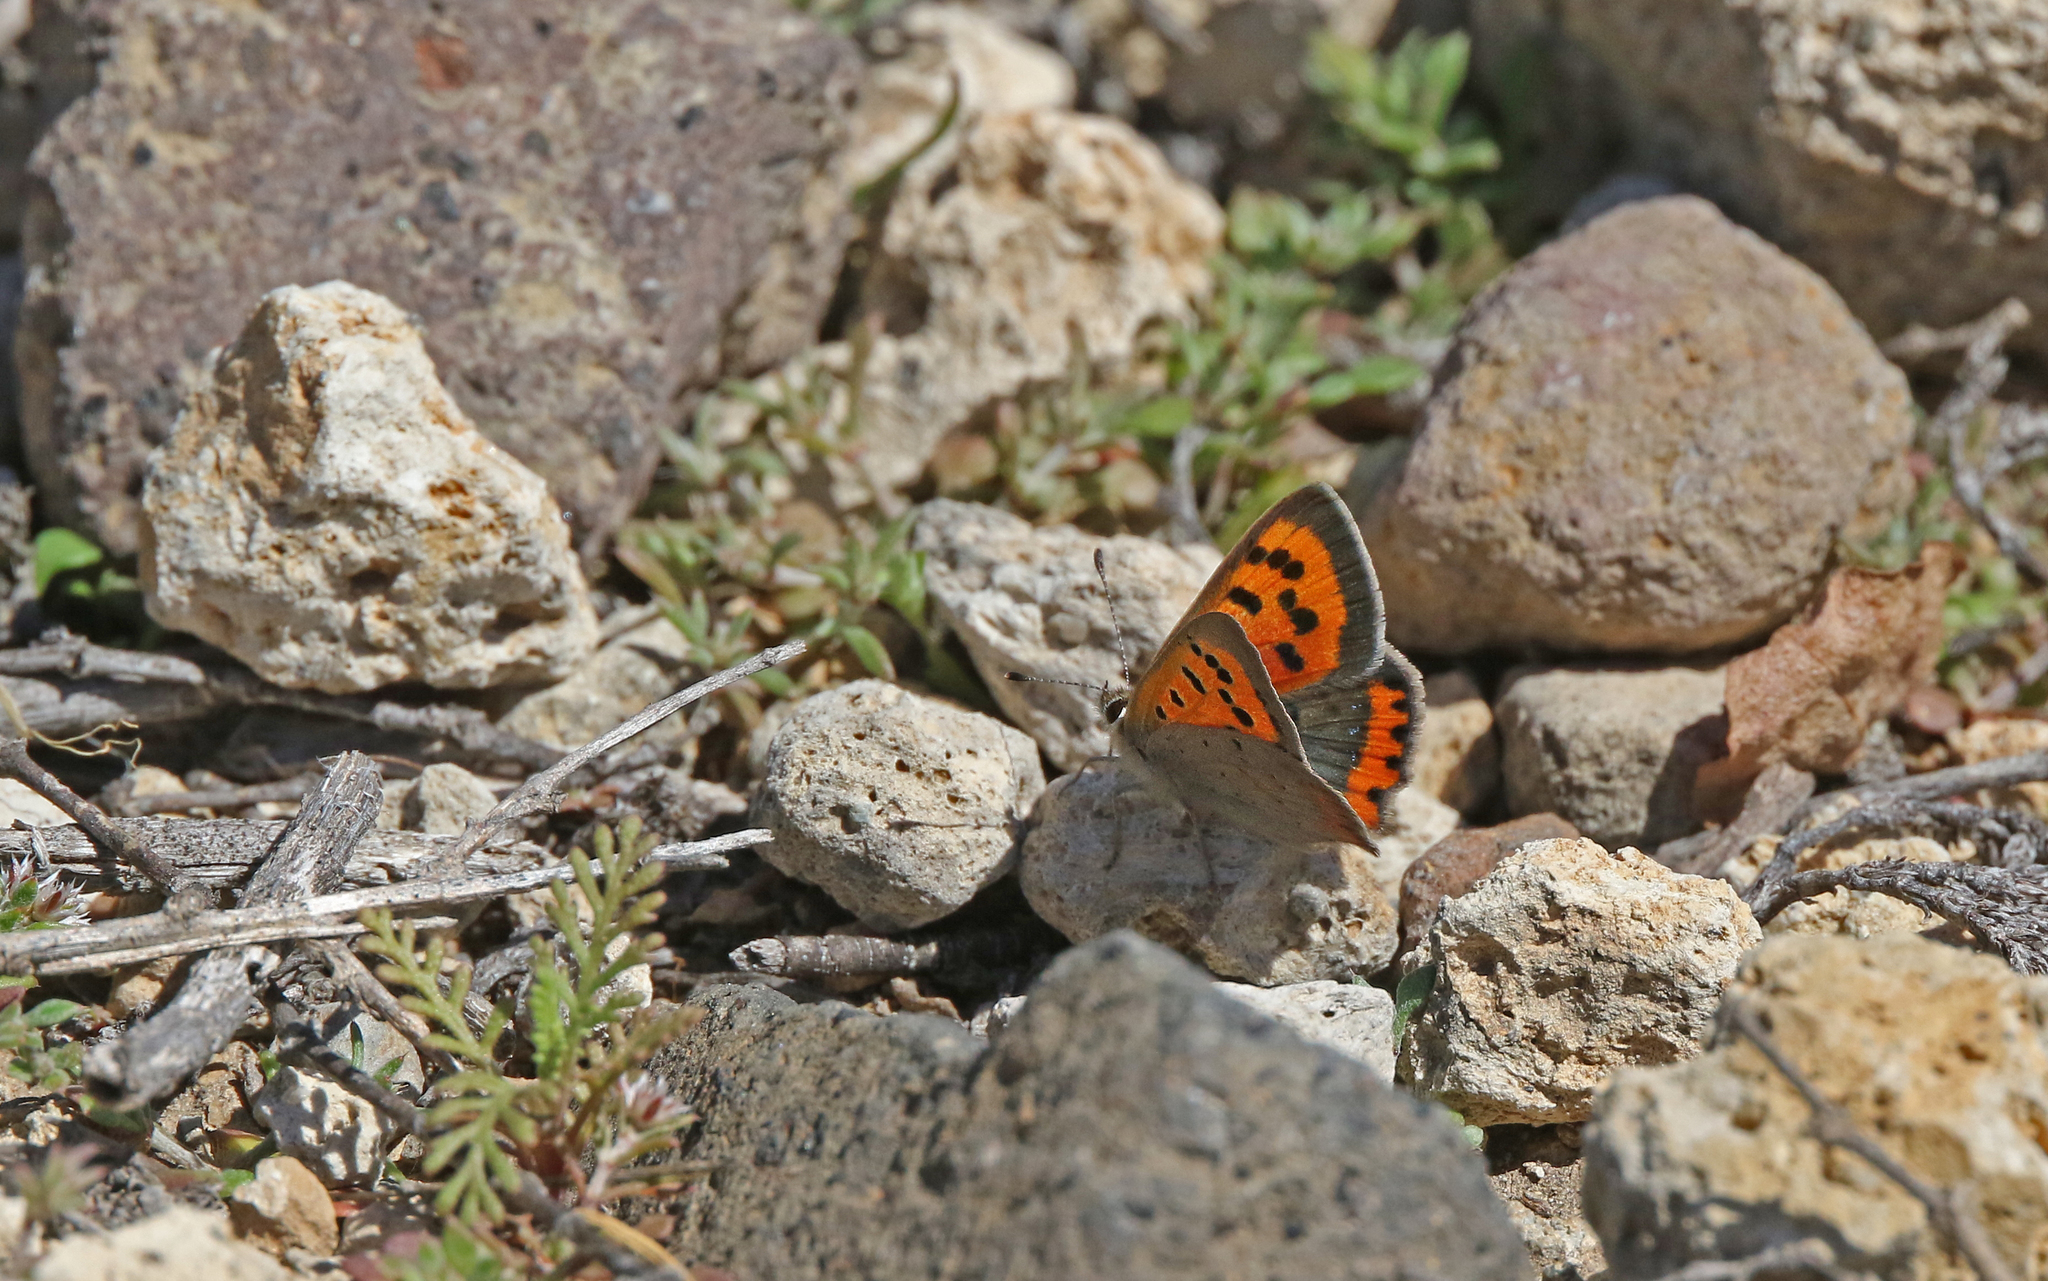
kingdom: Animalia
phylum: Arthropoda
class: Insecta
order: Lepidoptera
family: Lycaenidae
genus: Lycaena
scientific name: Lycaena phlaeas
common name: Small copper
